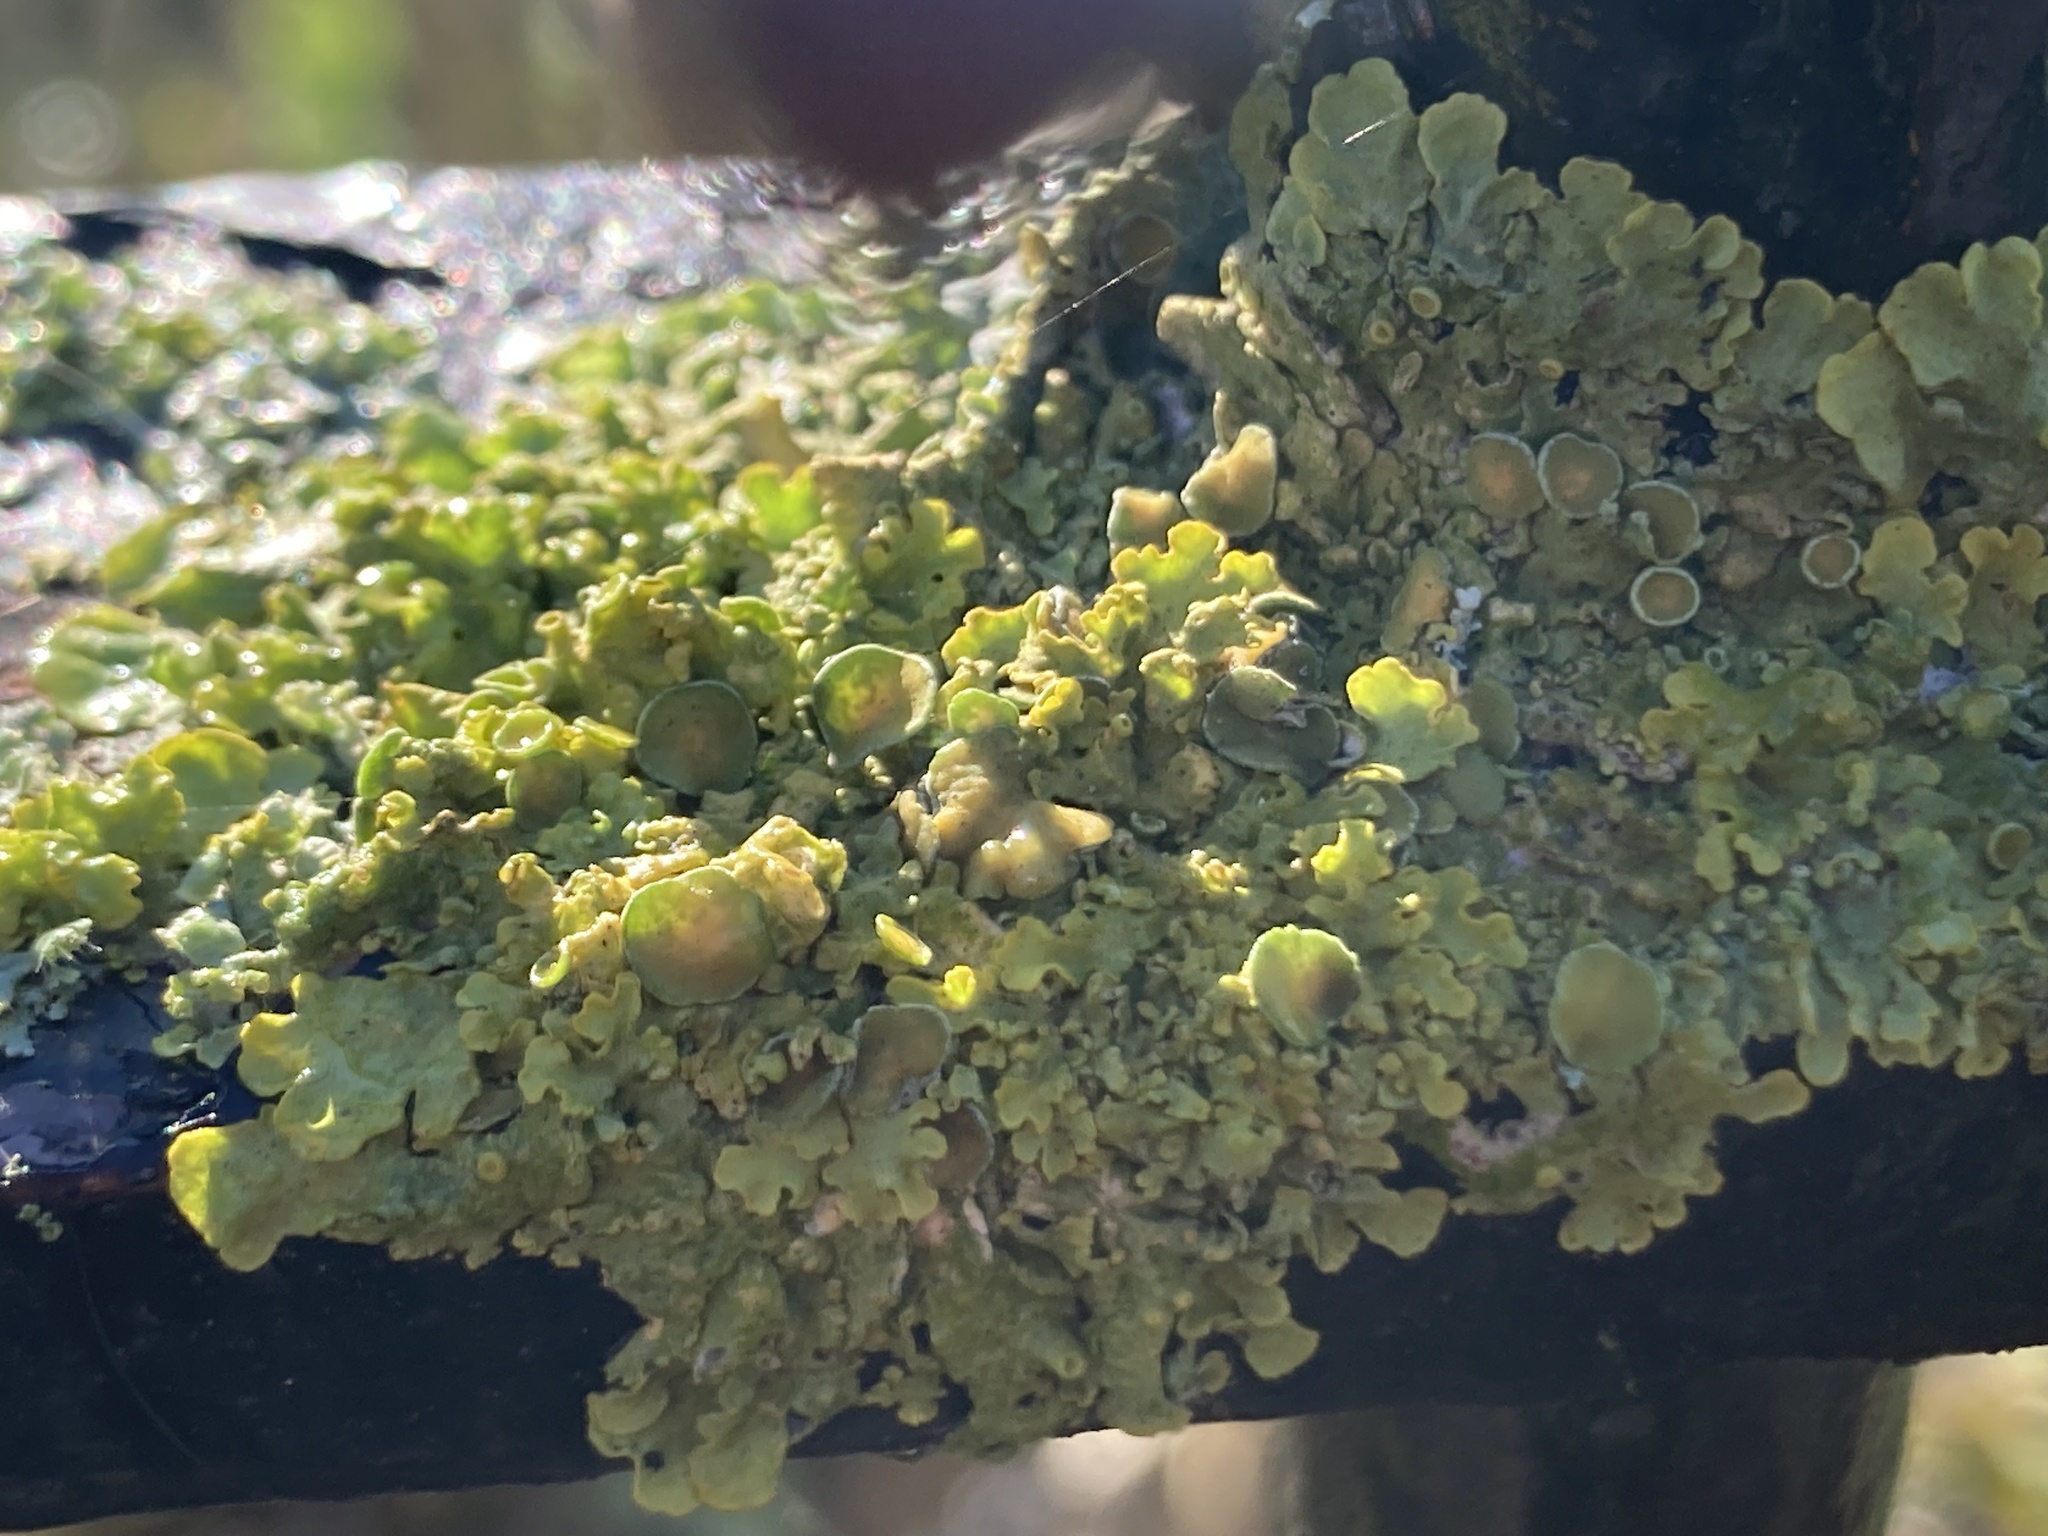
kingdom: Fungi
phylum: Ascomycota
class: Lecanoromycetes
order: Teloschistales
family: Teloschistaceae
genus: Xanthoria
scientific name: Xanthoria parietina
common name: Common orange lichen
